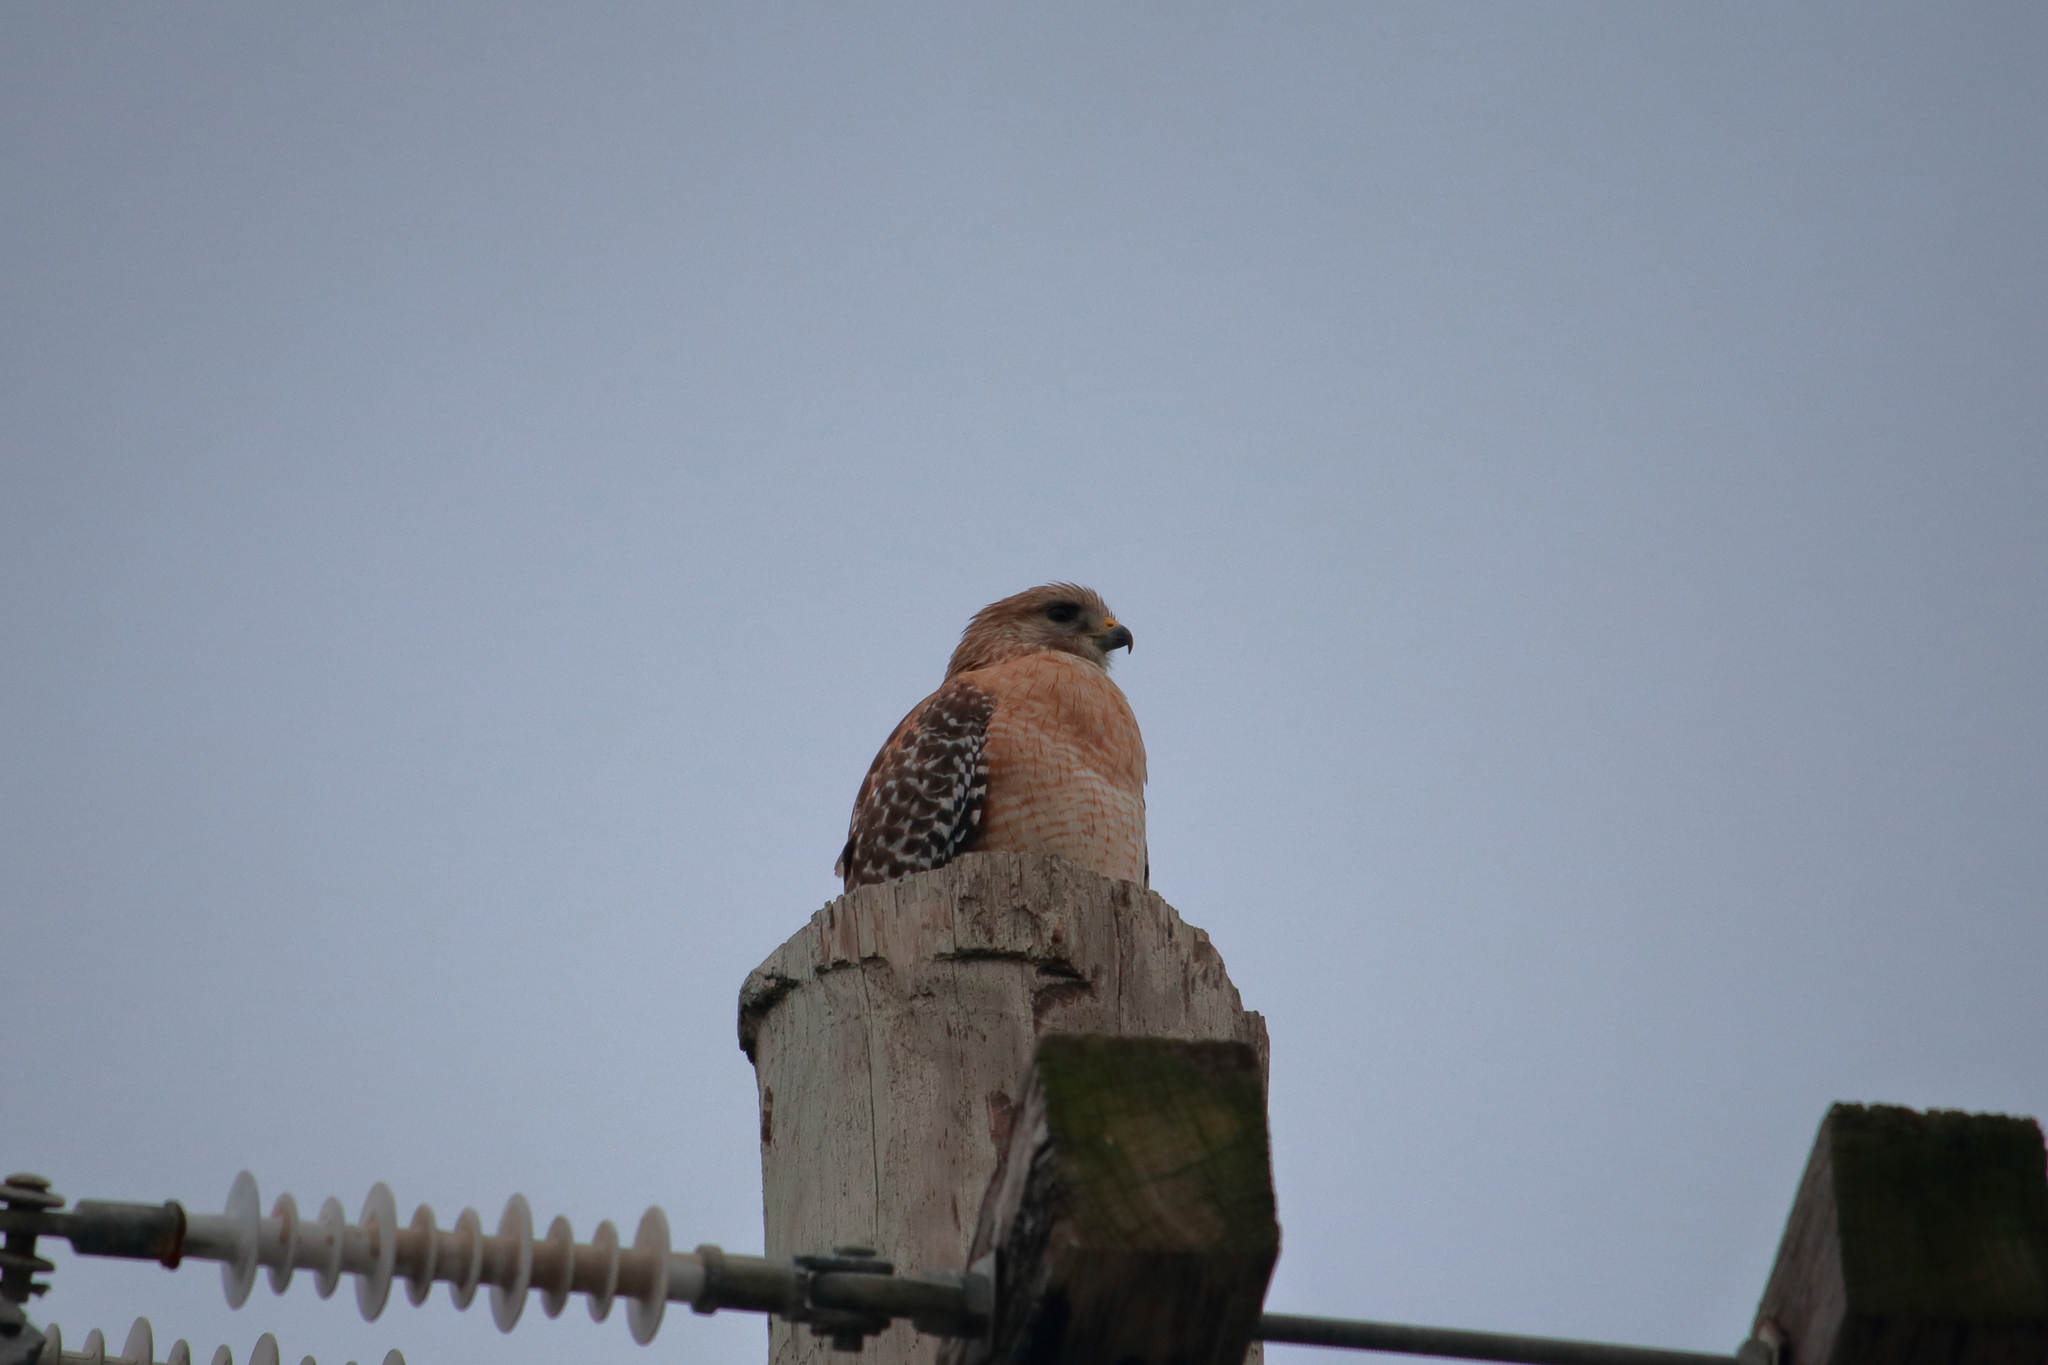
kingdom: Animalia
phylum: Chordata
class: Aves
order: Accipitriformes
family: Accipitridae
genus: Buteo
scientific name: Buteo lineatus
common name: Red-shouldered hawk
